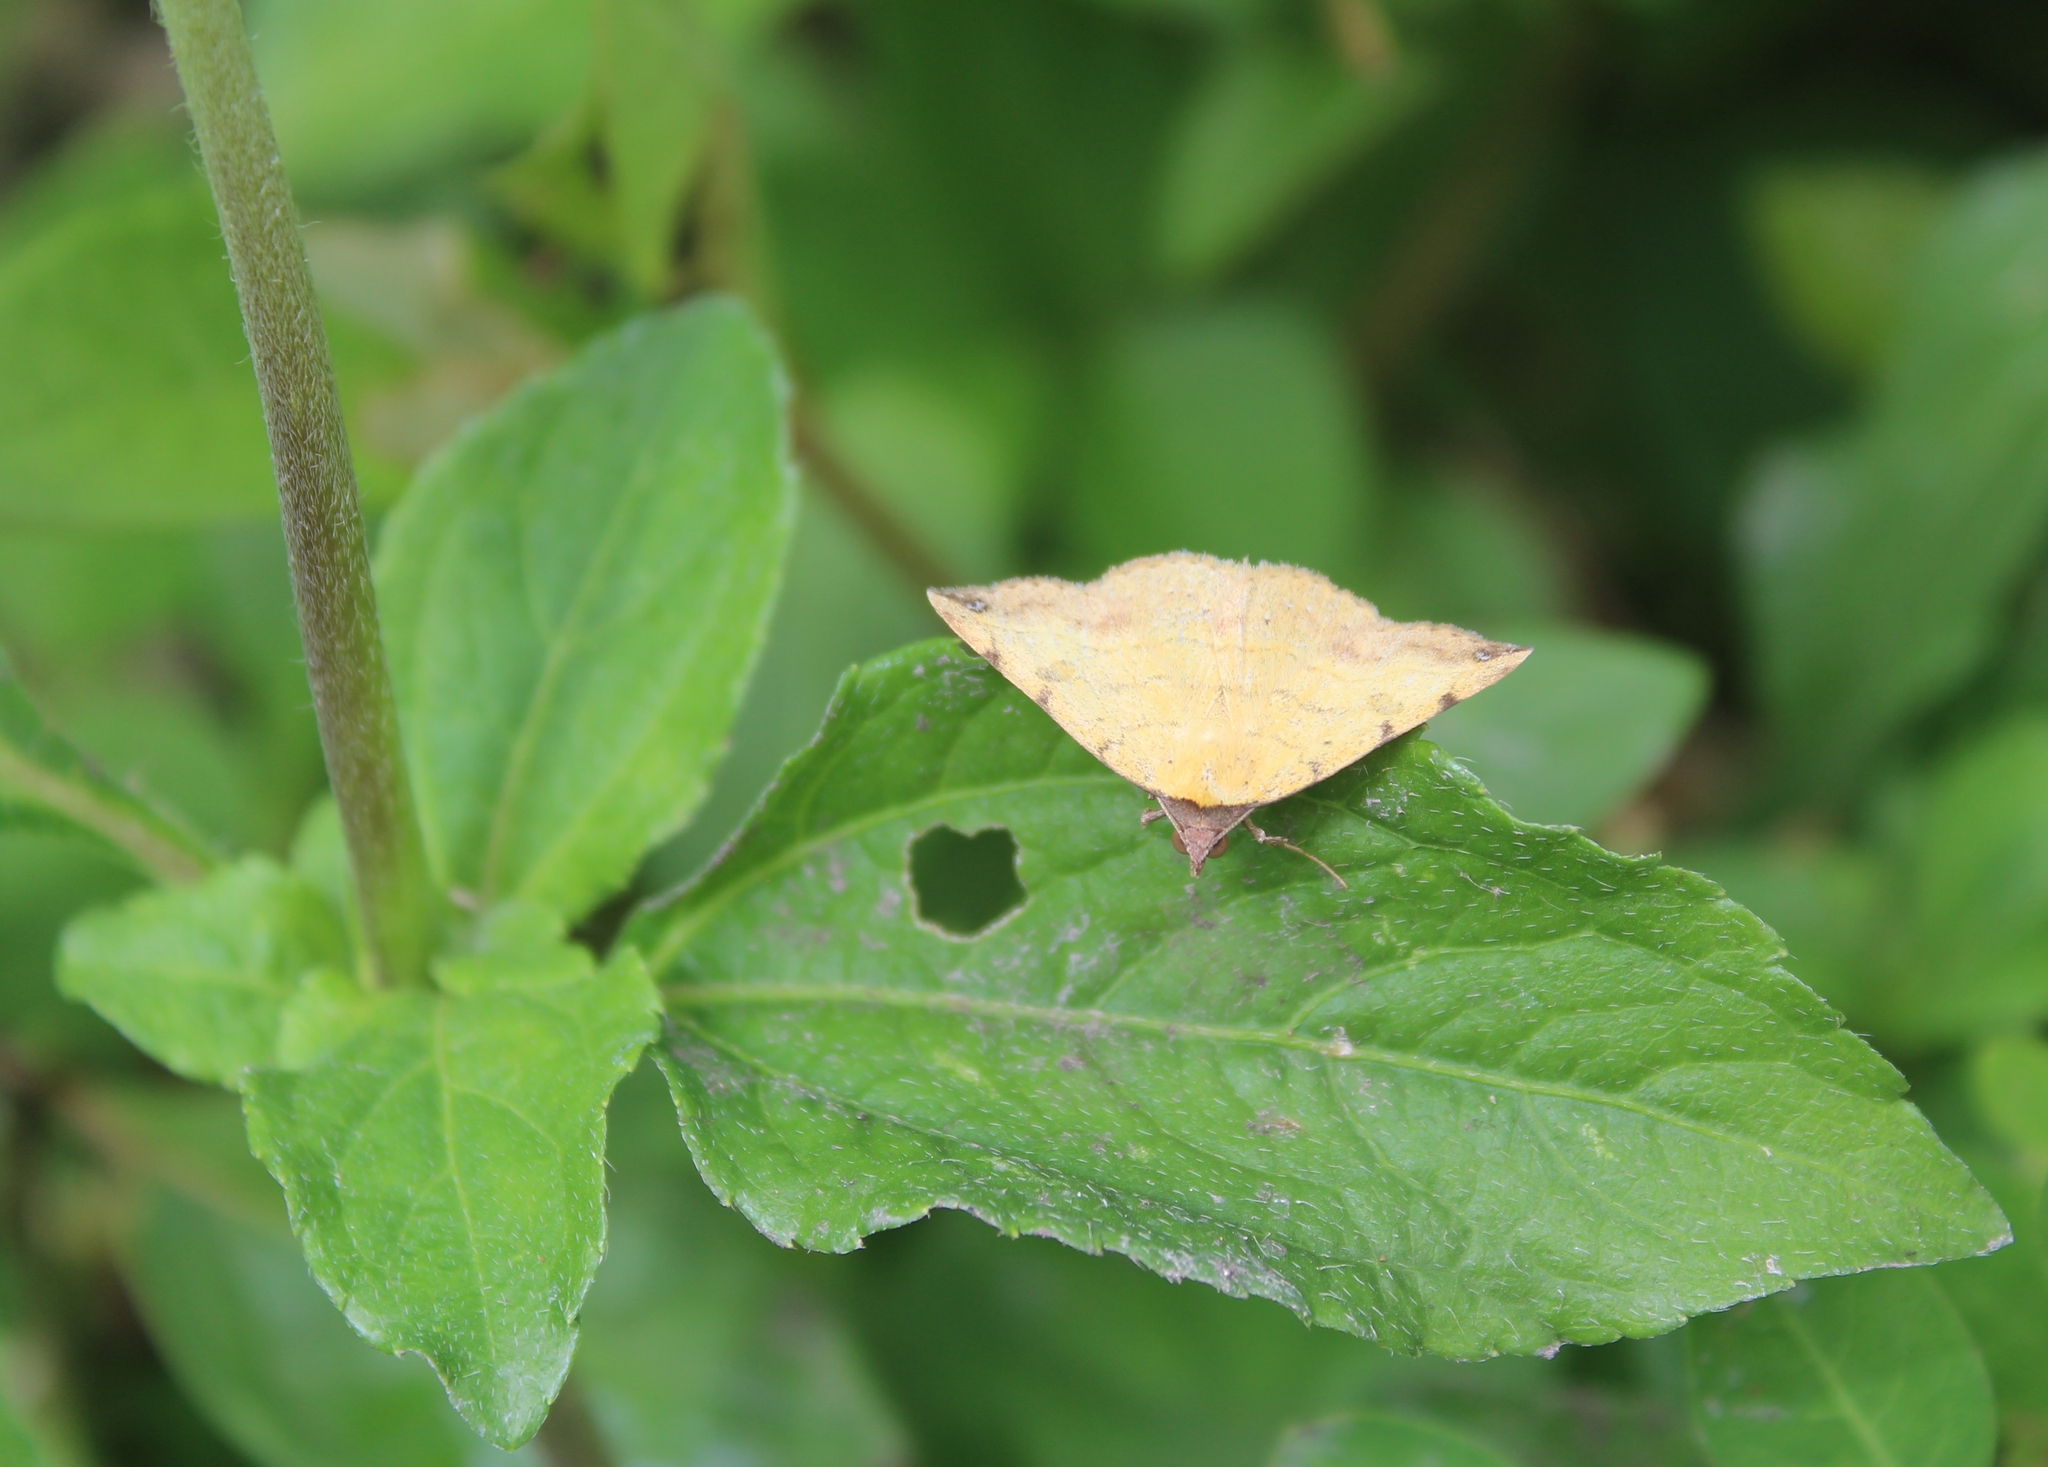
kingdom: Animalia
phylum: Arthropoda
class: Insecta
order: Lepidoptera
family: Erebidae
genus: Hemeroplanis
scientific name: Hemeroplanis scopulepes
